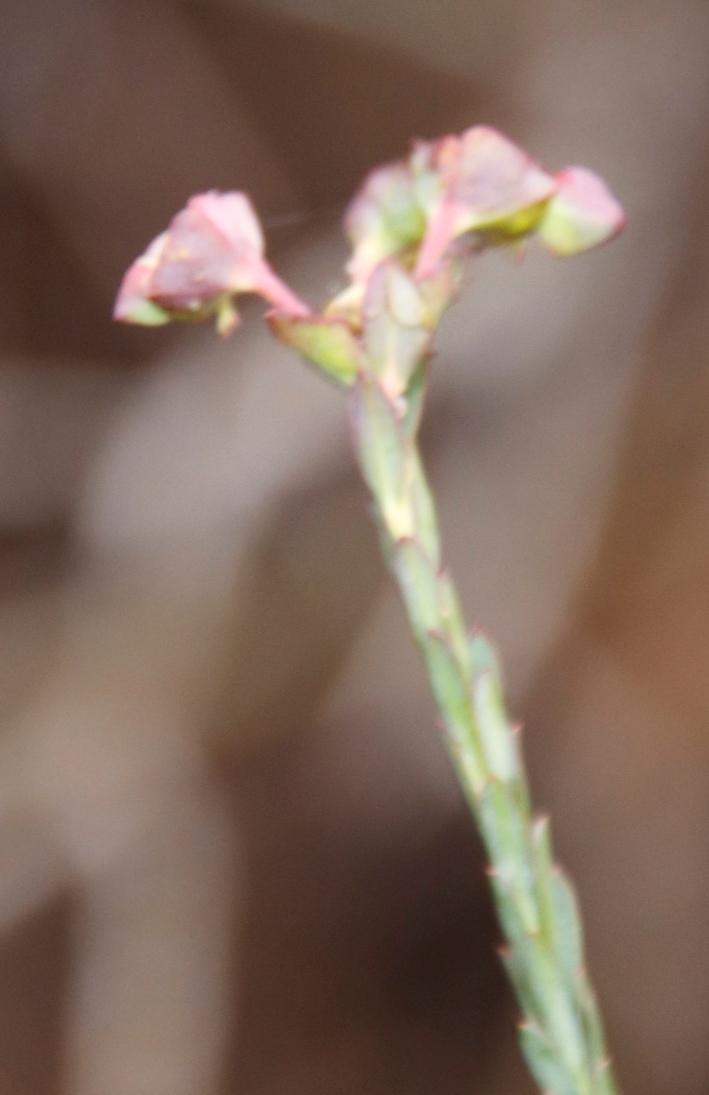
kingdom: Plantae
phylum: Tracheophyta
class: Magnoliopsida
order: Malpighiales
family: Euphorbiaceae
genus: Euphorbia
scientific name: Euphorbia genistoides
